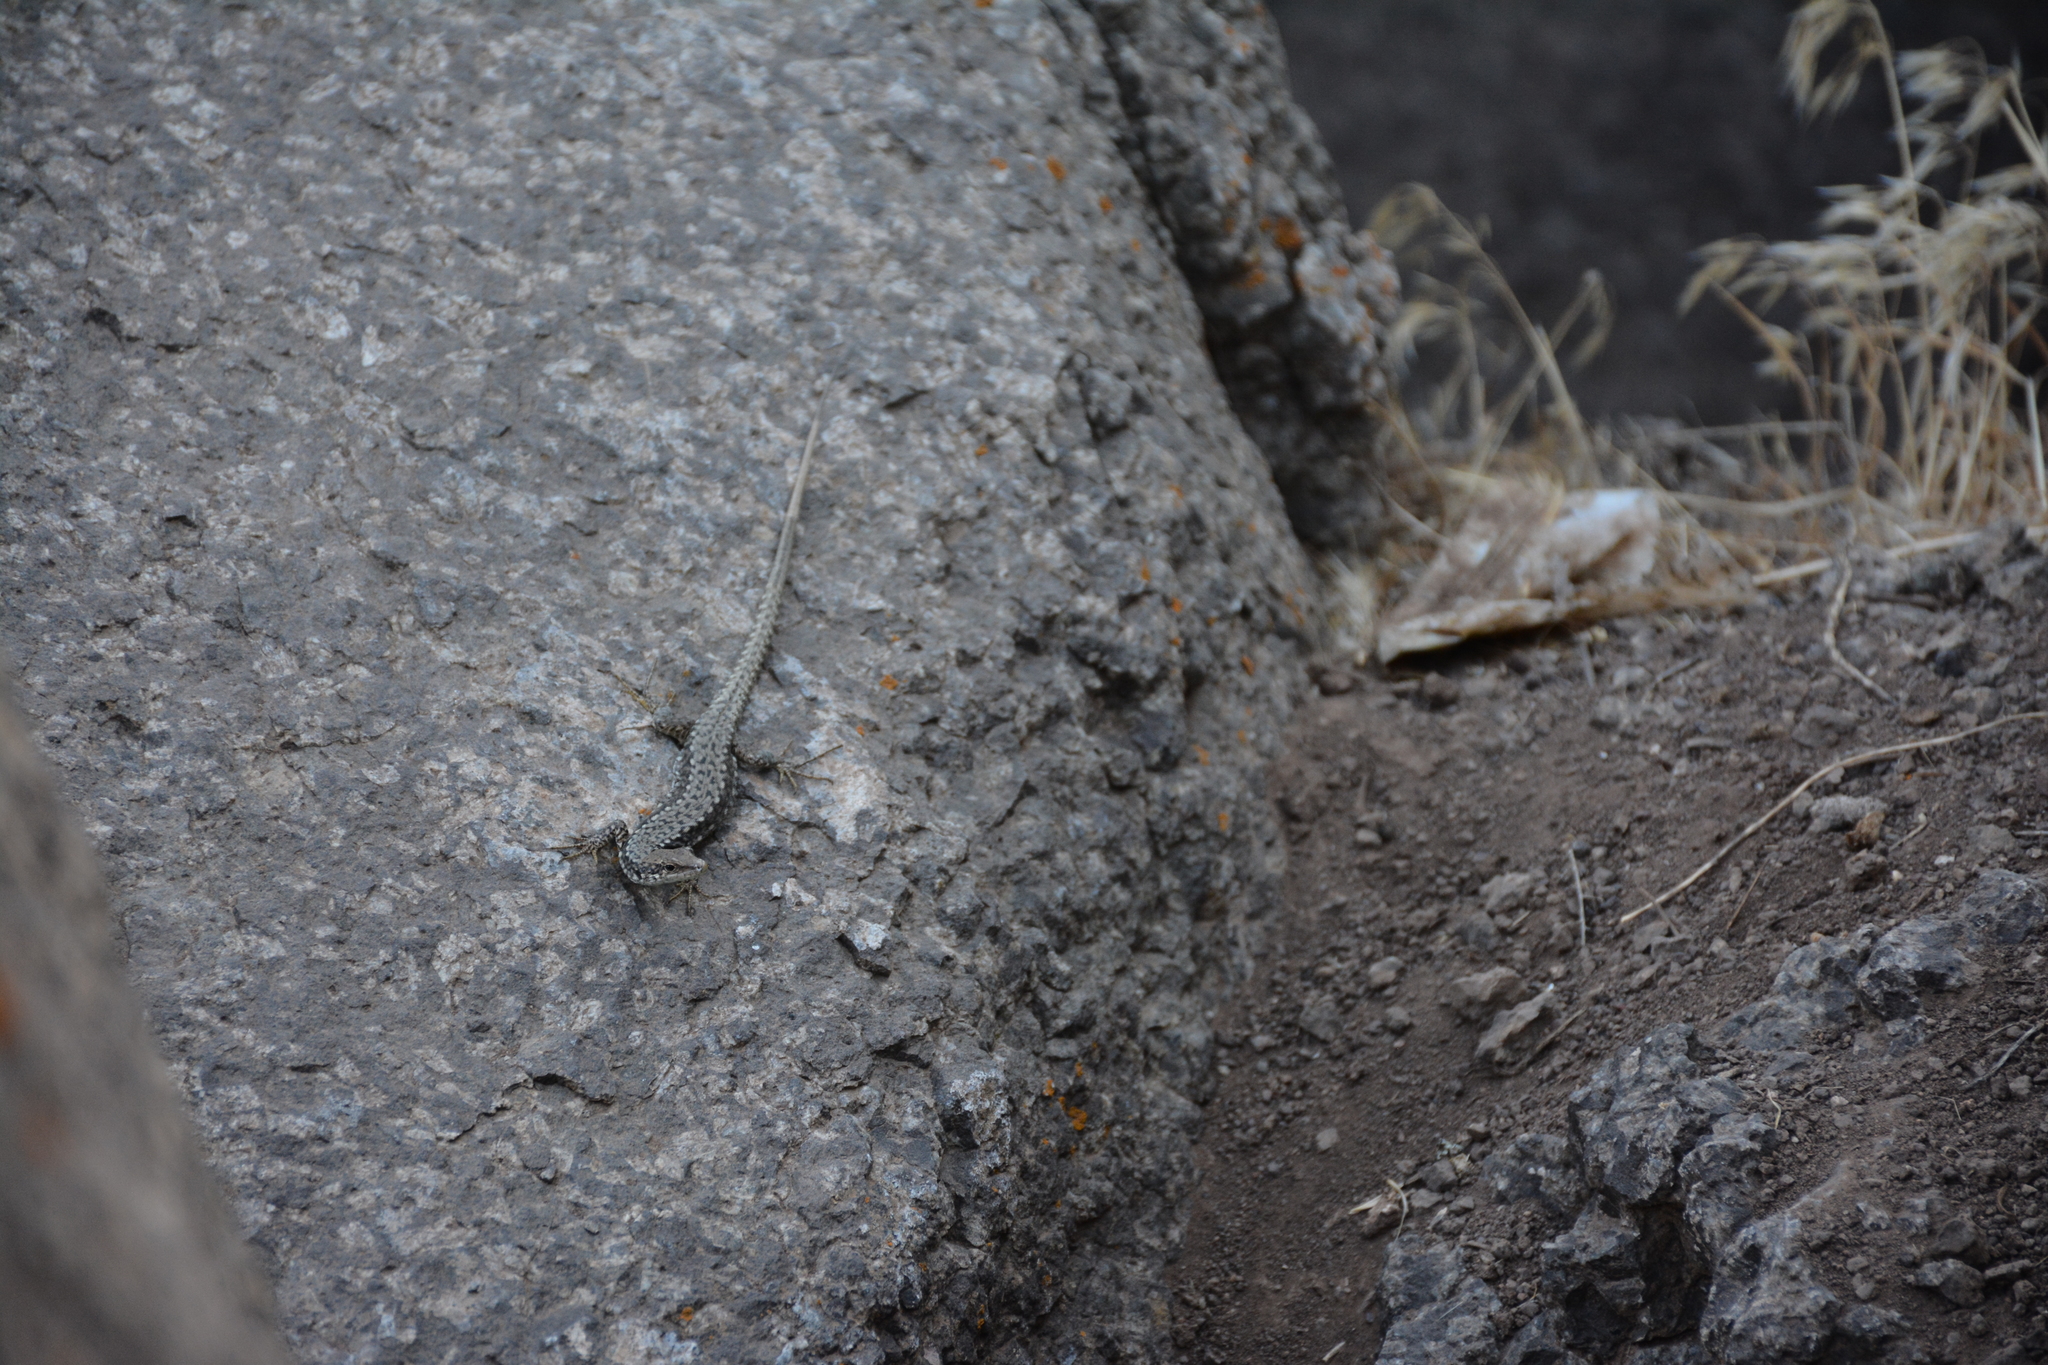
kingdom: Animalia
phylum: Chordata
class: Squamata
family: Lacertidae
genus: Darevskia
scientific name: Darevskia raddei
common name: Radde's lizard
